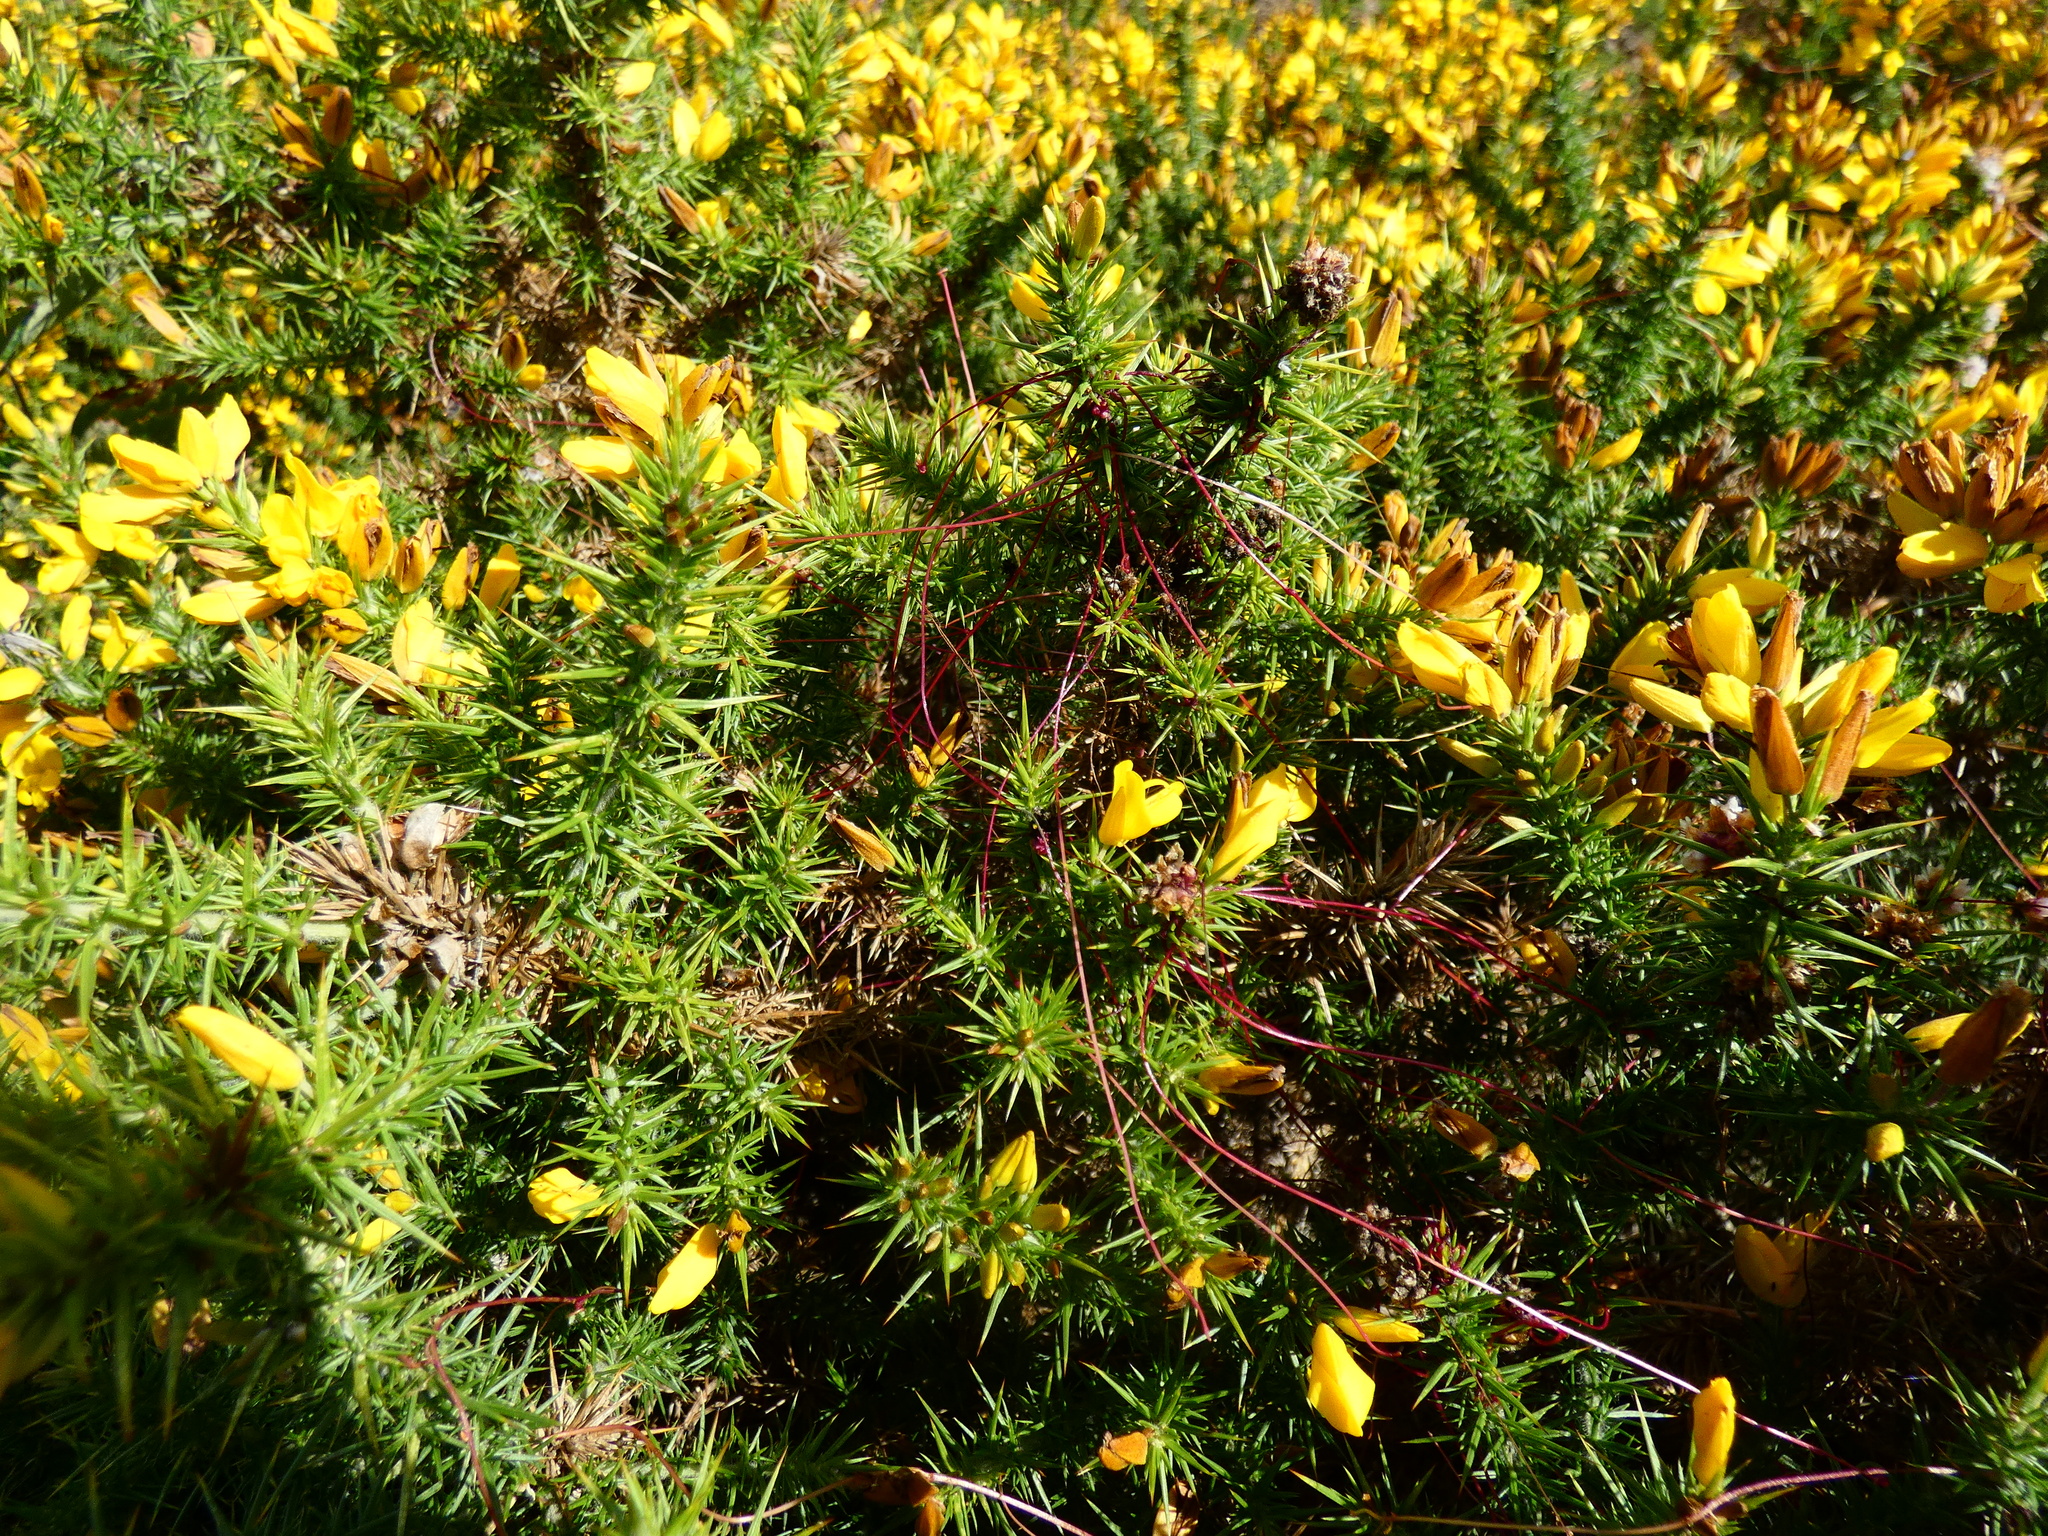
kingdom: Plantae
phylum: Tracheophyta
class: Magnoliopsida
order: Solanales
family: Convolvulaceae
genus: Cuscuta
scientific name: Cuscuta epithymum
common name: Clover dodder
